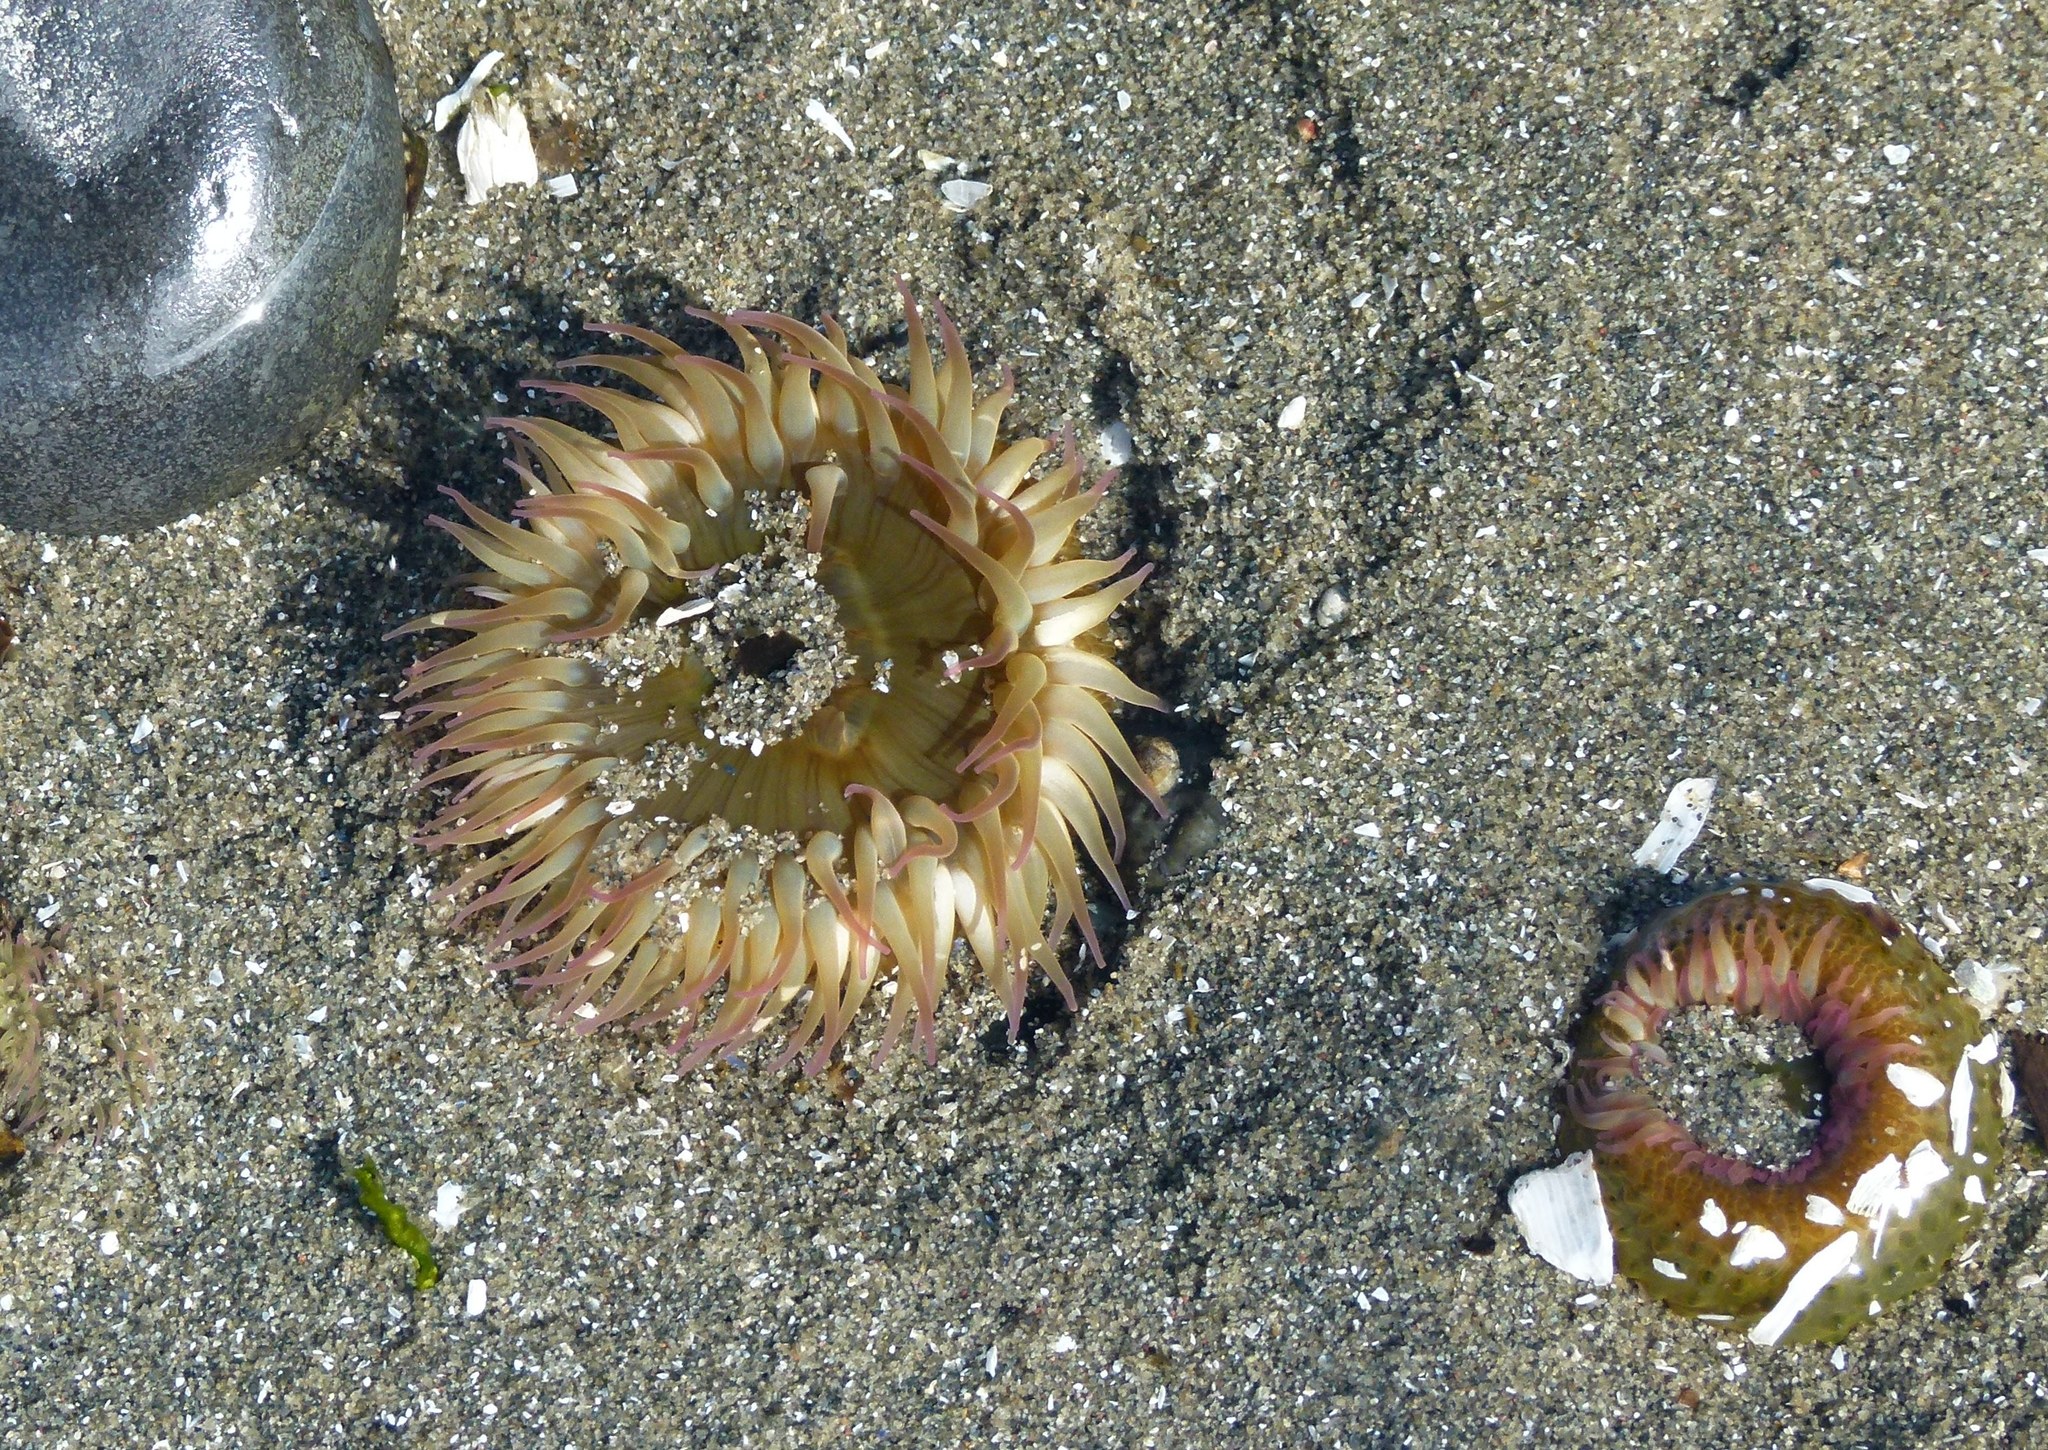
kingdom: Animalia
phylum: Cnidaria
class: Anthozoa
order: Actiniaria
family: Actiniidae
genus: Anthopleura
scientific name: Anthopleura elegantissima
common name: Clonal anemone
